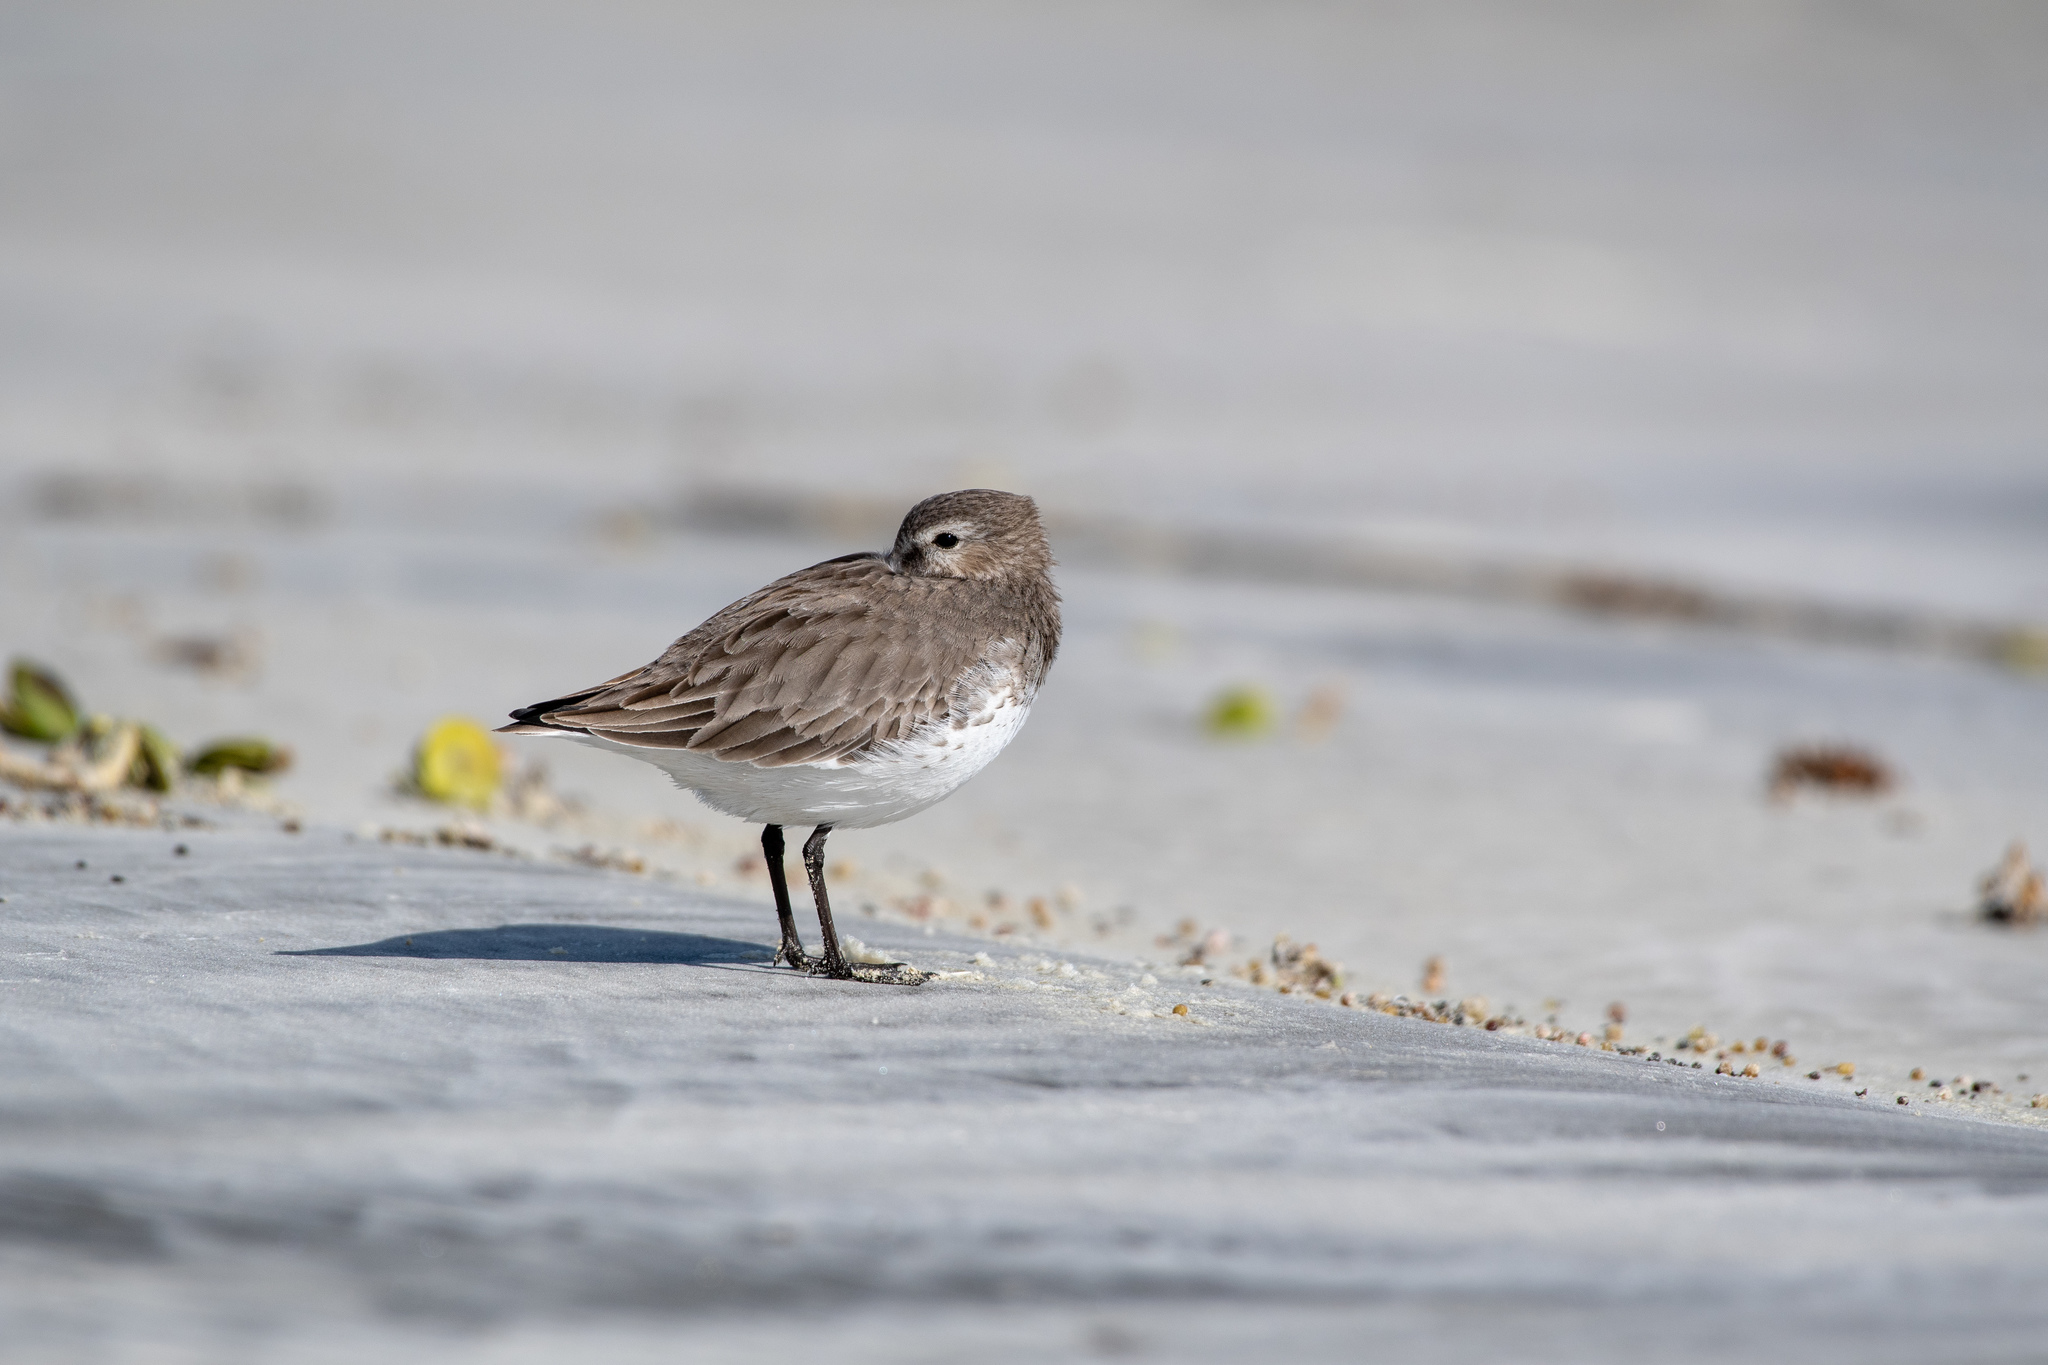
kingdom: Animalia
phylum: Chordata
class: Aves
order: Charadriiformes
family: Scolopacidae
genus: Calidris
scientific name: Calidris alpina
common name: Dunlin
